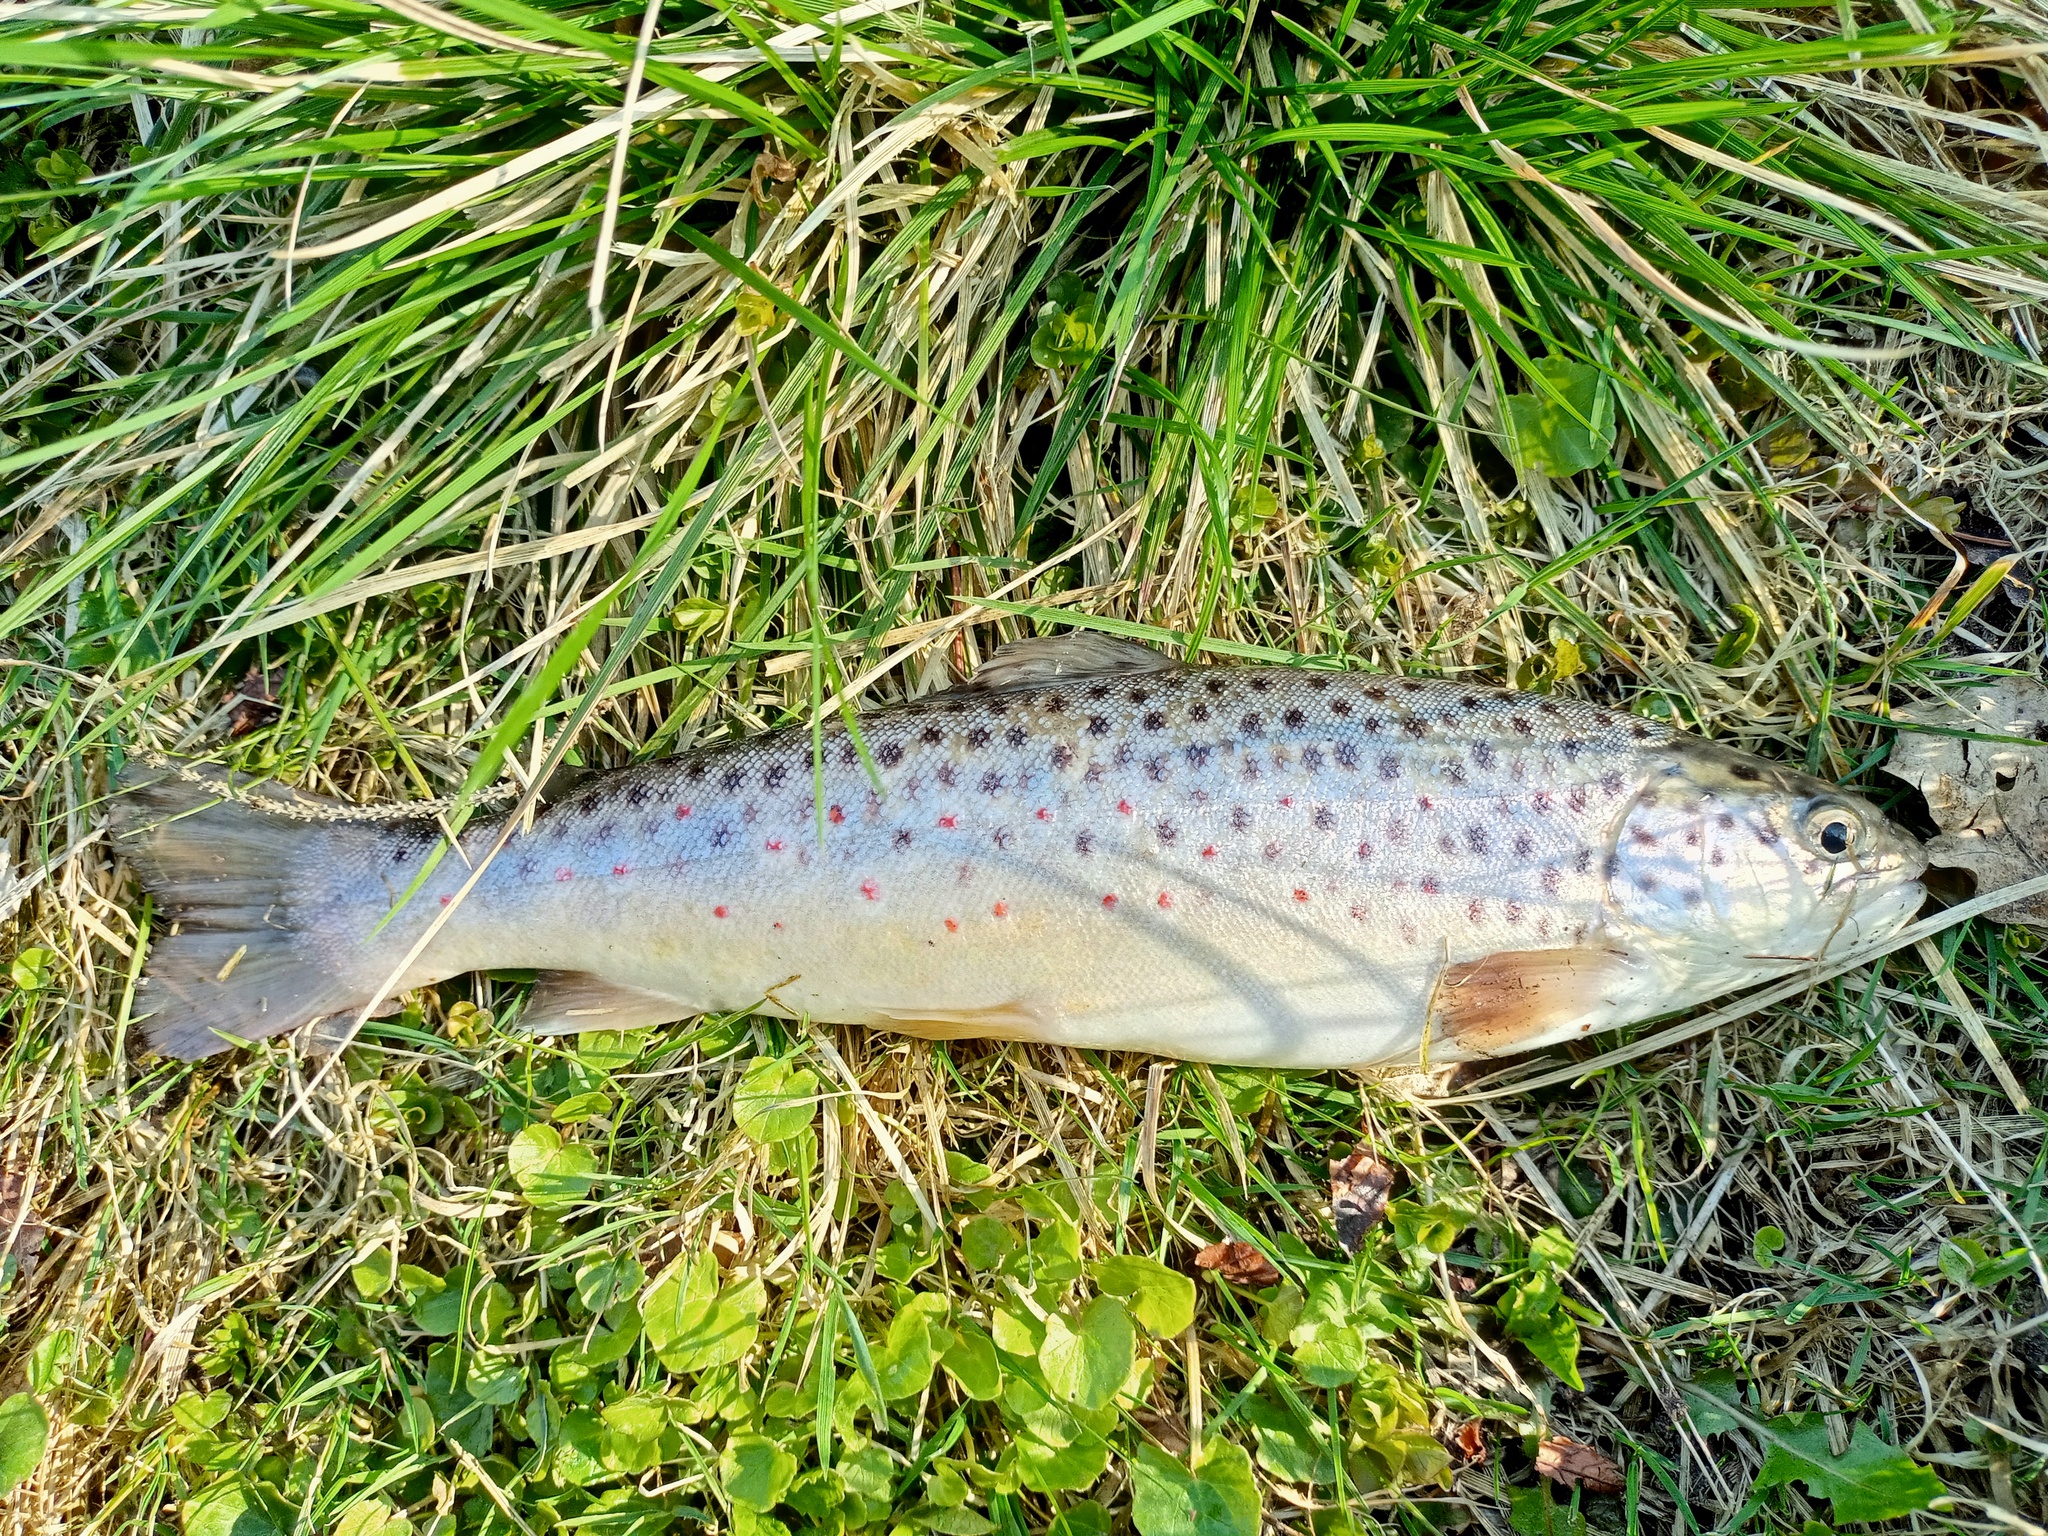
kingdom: Animalia
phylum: Chordata
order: Salmoniformes
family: Salmonidae
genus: Salmo
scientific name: Salmo trutta
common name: Brown trout
